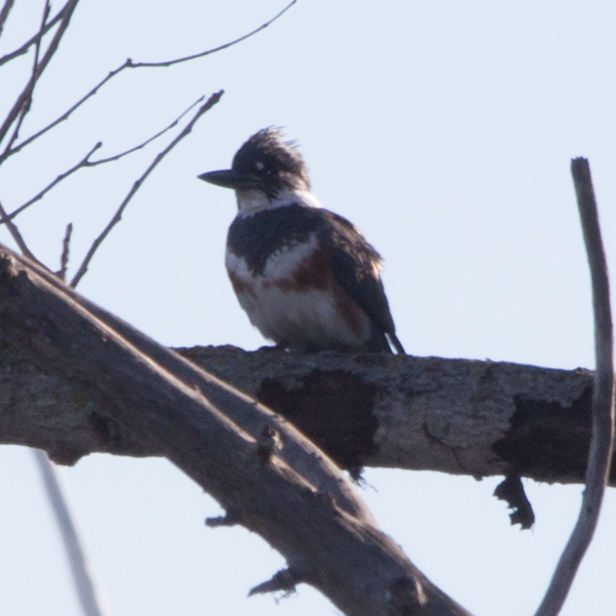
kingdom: Animalia
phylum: Chordata
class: Aves
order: Coraciiformes
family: Alcedinidae
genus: Megaceryle
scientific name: Megaceryle alcyon
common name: Belted kingfisher
